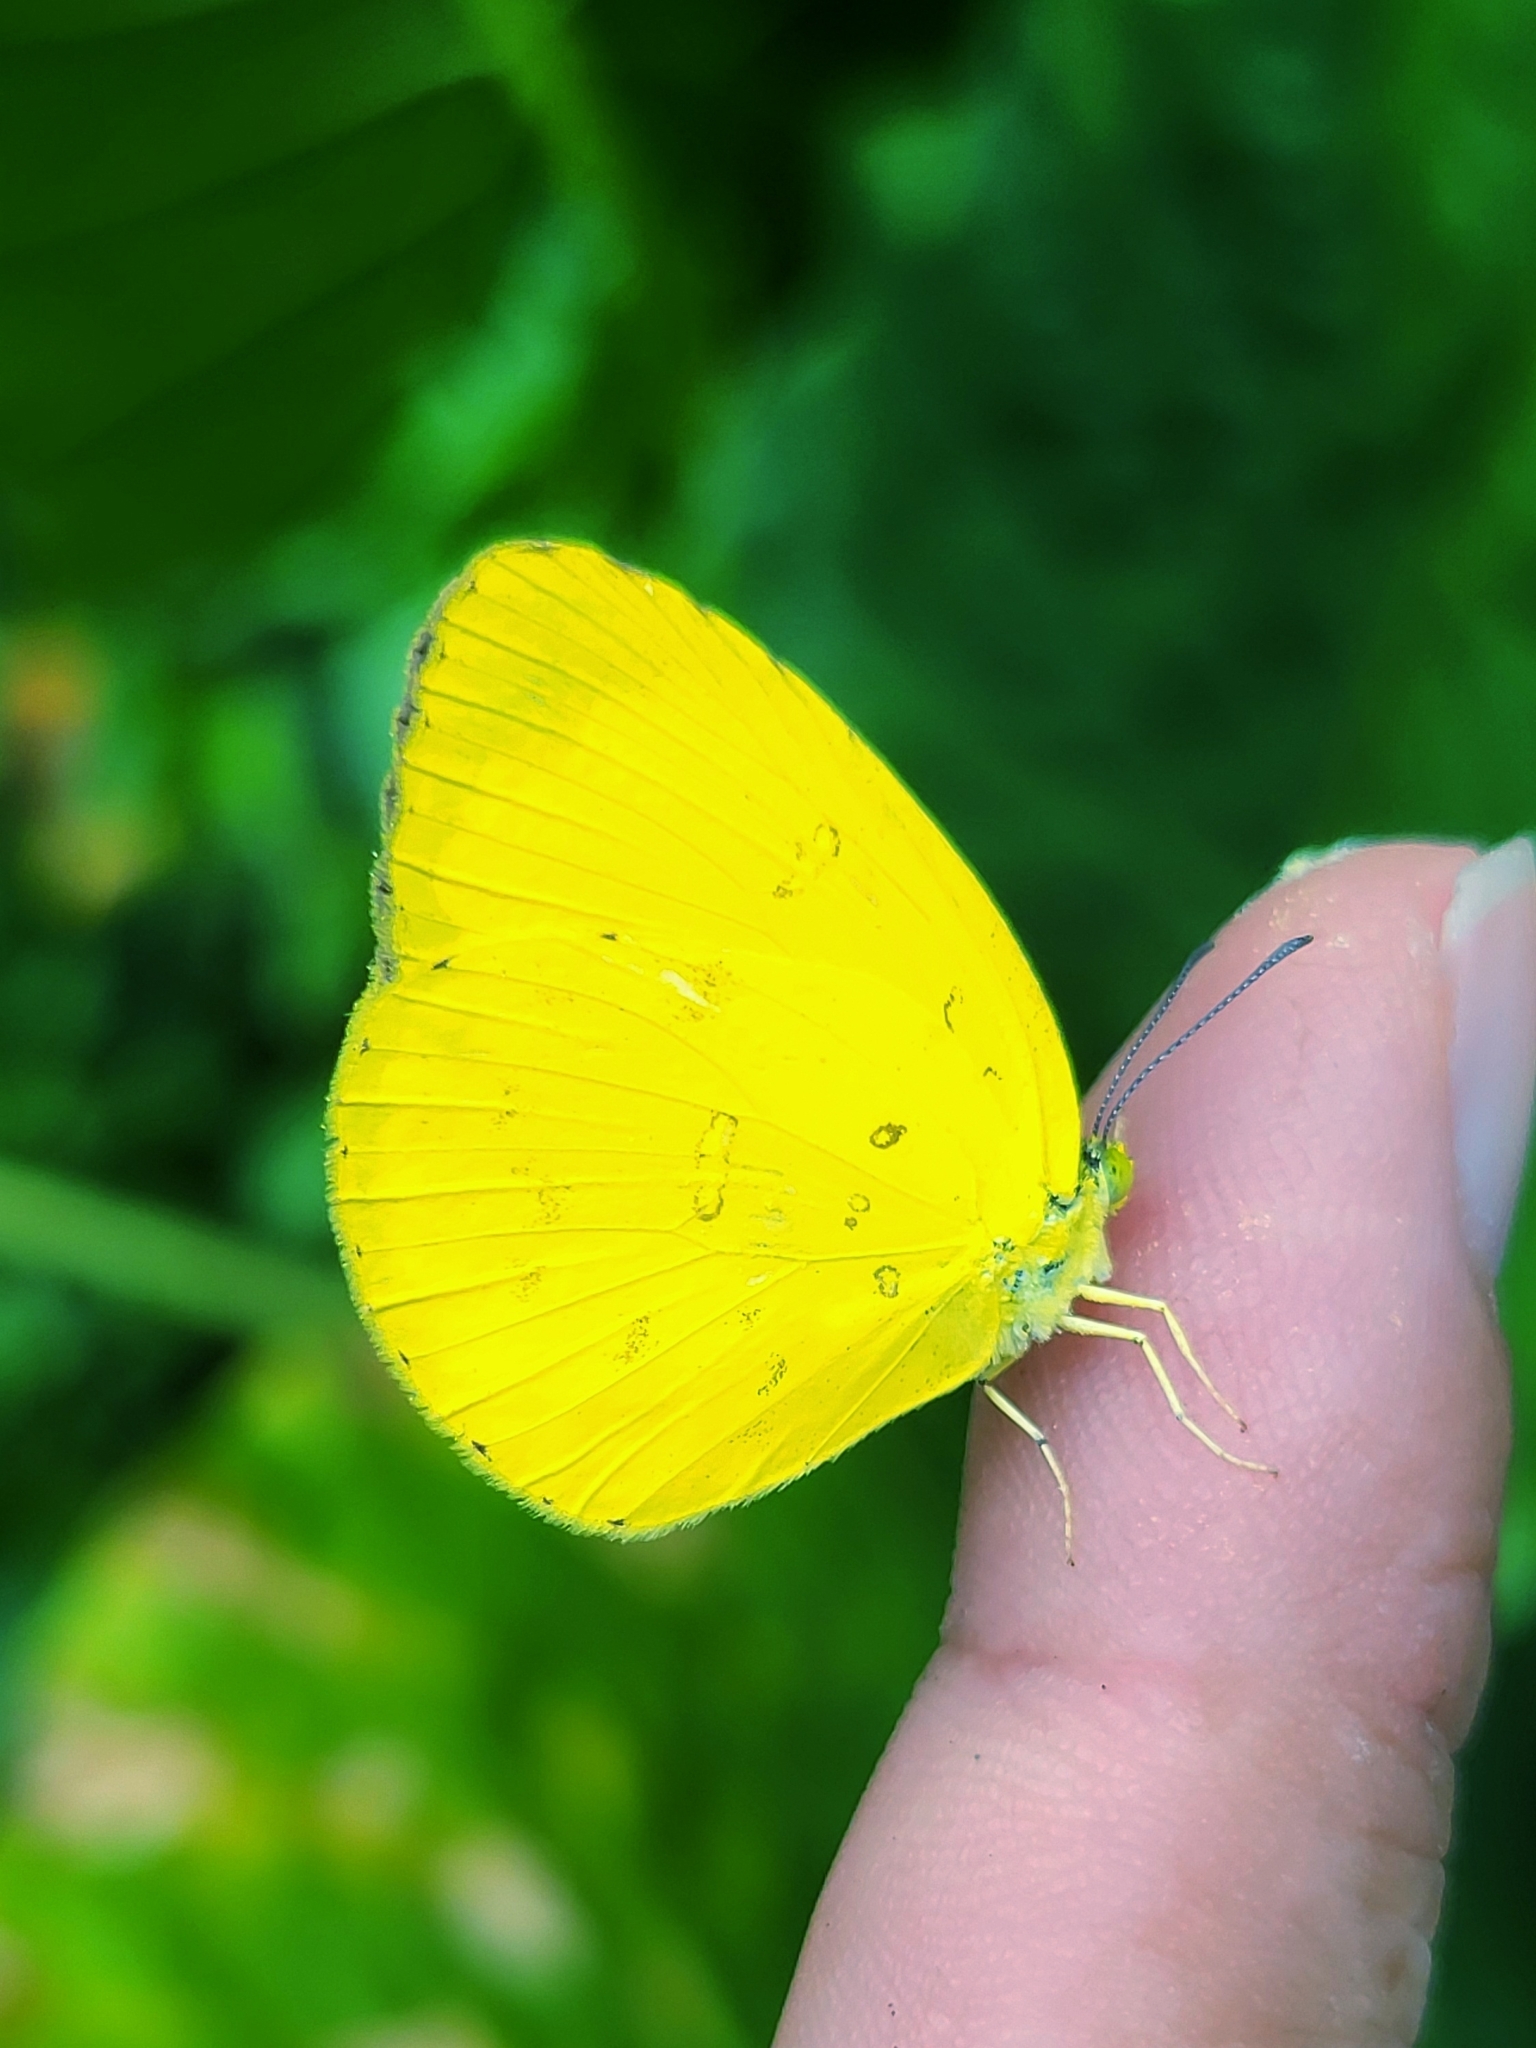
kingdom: Animalia
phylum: Arthropoda
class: Insecta
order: Lepidoptera
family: Pieridae
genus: Eurema
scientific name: Eurema hecabe
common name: Pale grass yellow
